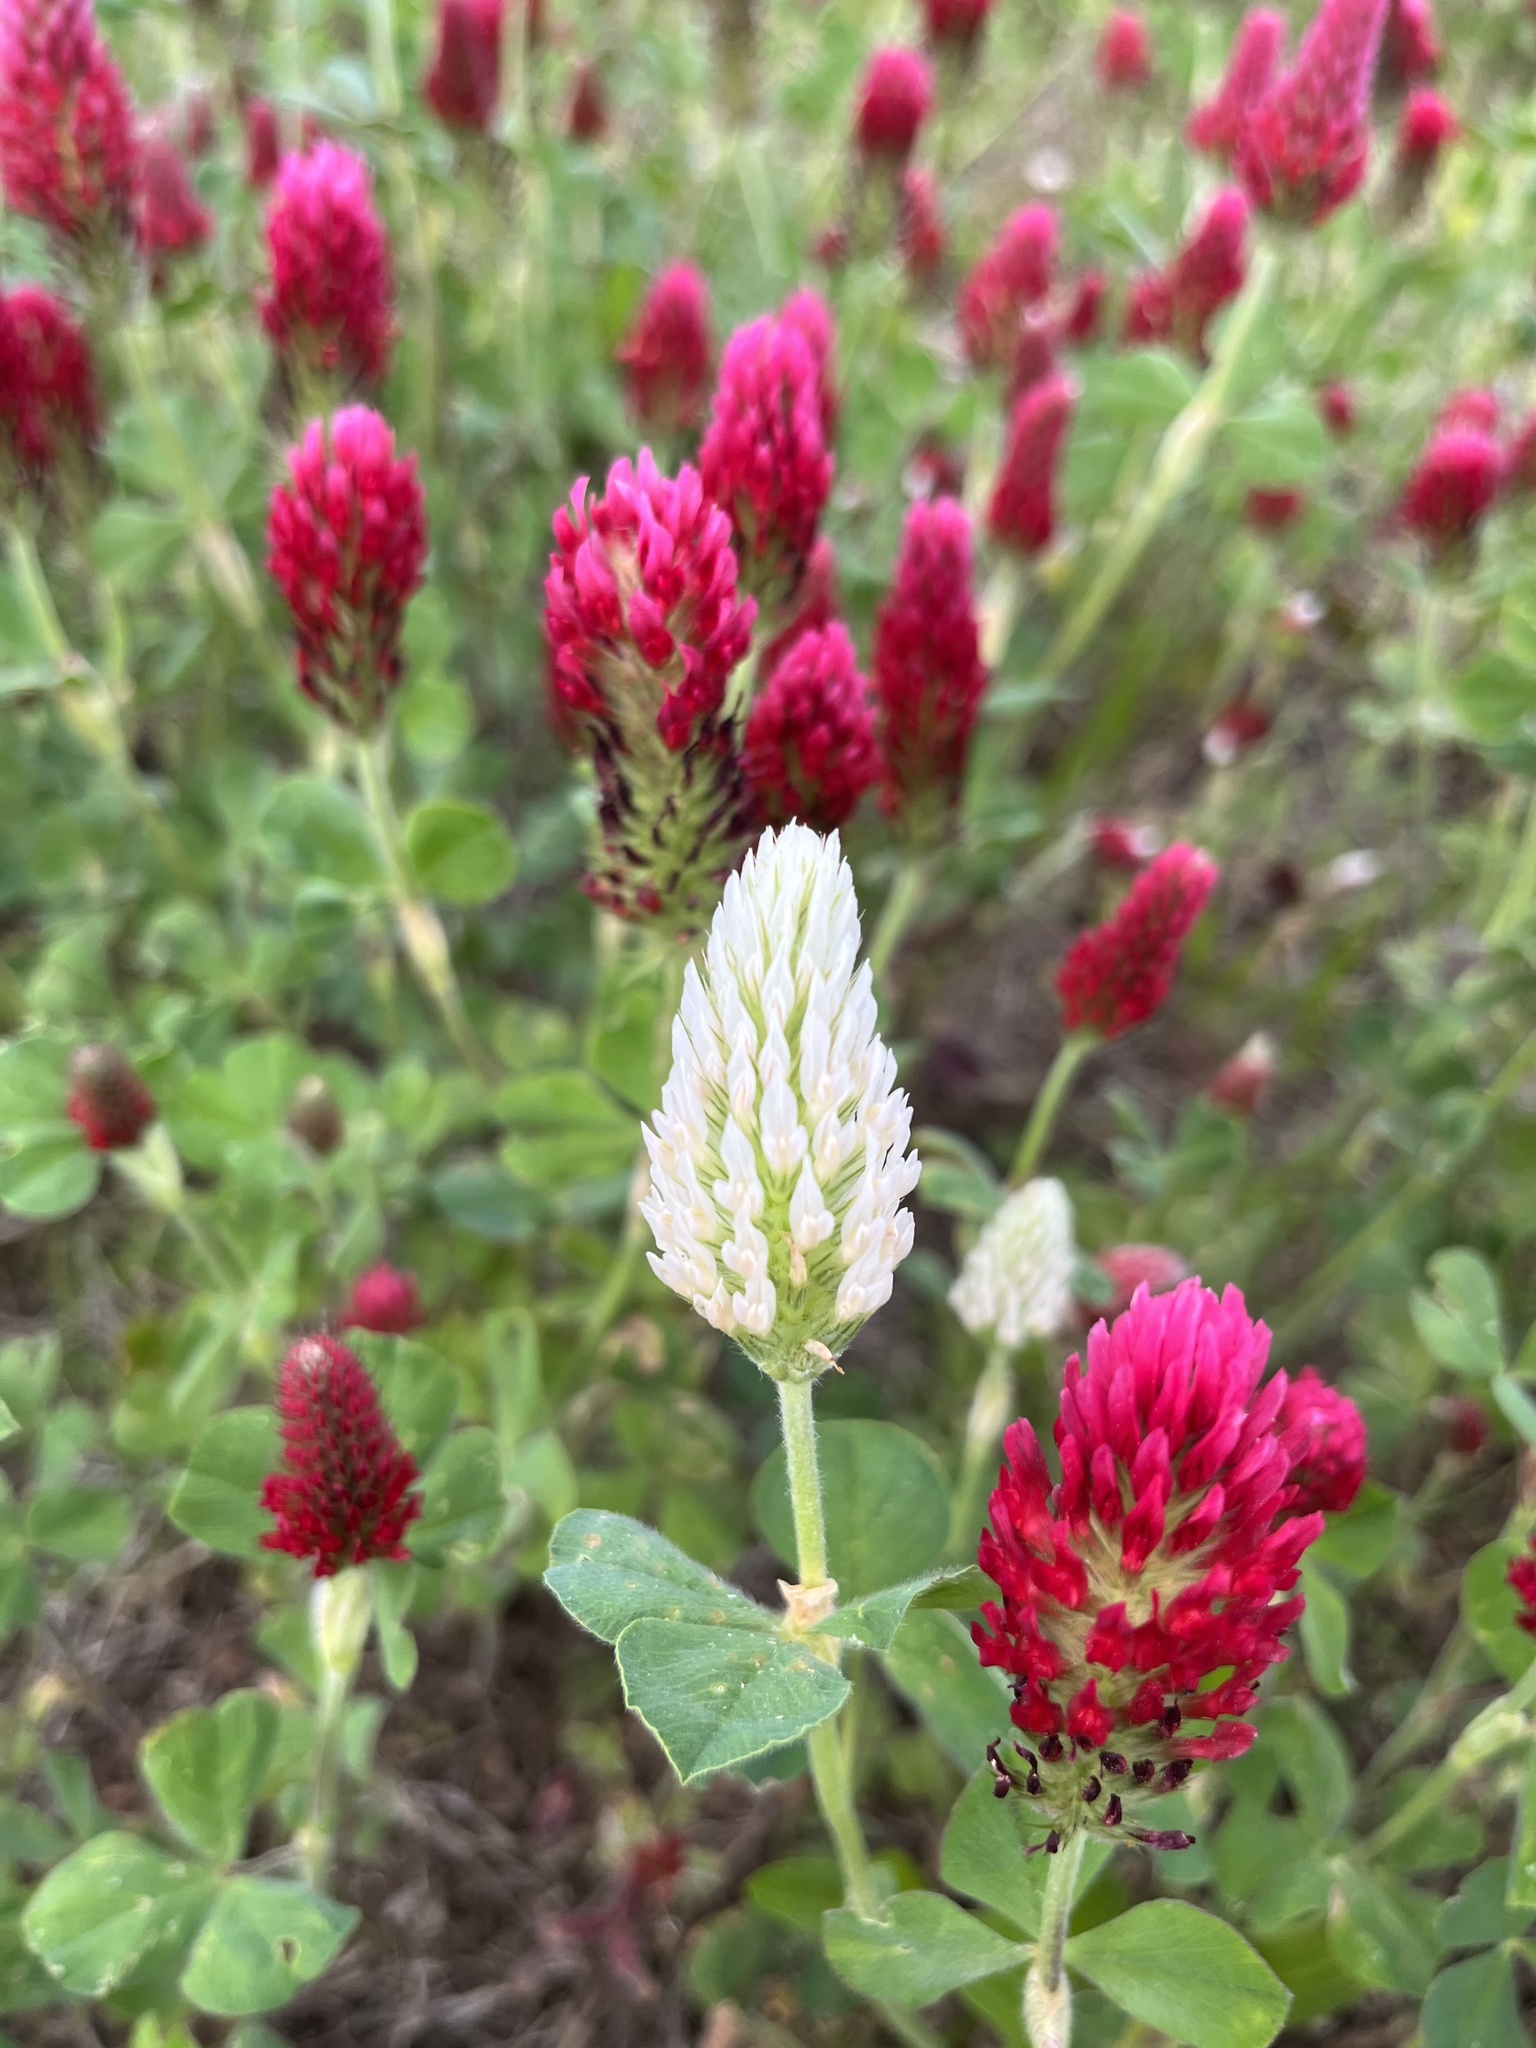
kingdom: Plantae
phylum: Tracheophyta
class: Magnoliopsida
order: Fabales
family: Fabaceae
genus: Trifolium
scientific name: Trifolium incarnatum
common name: Crimson clover
